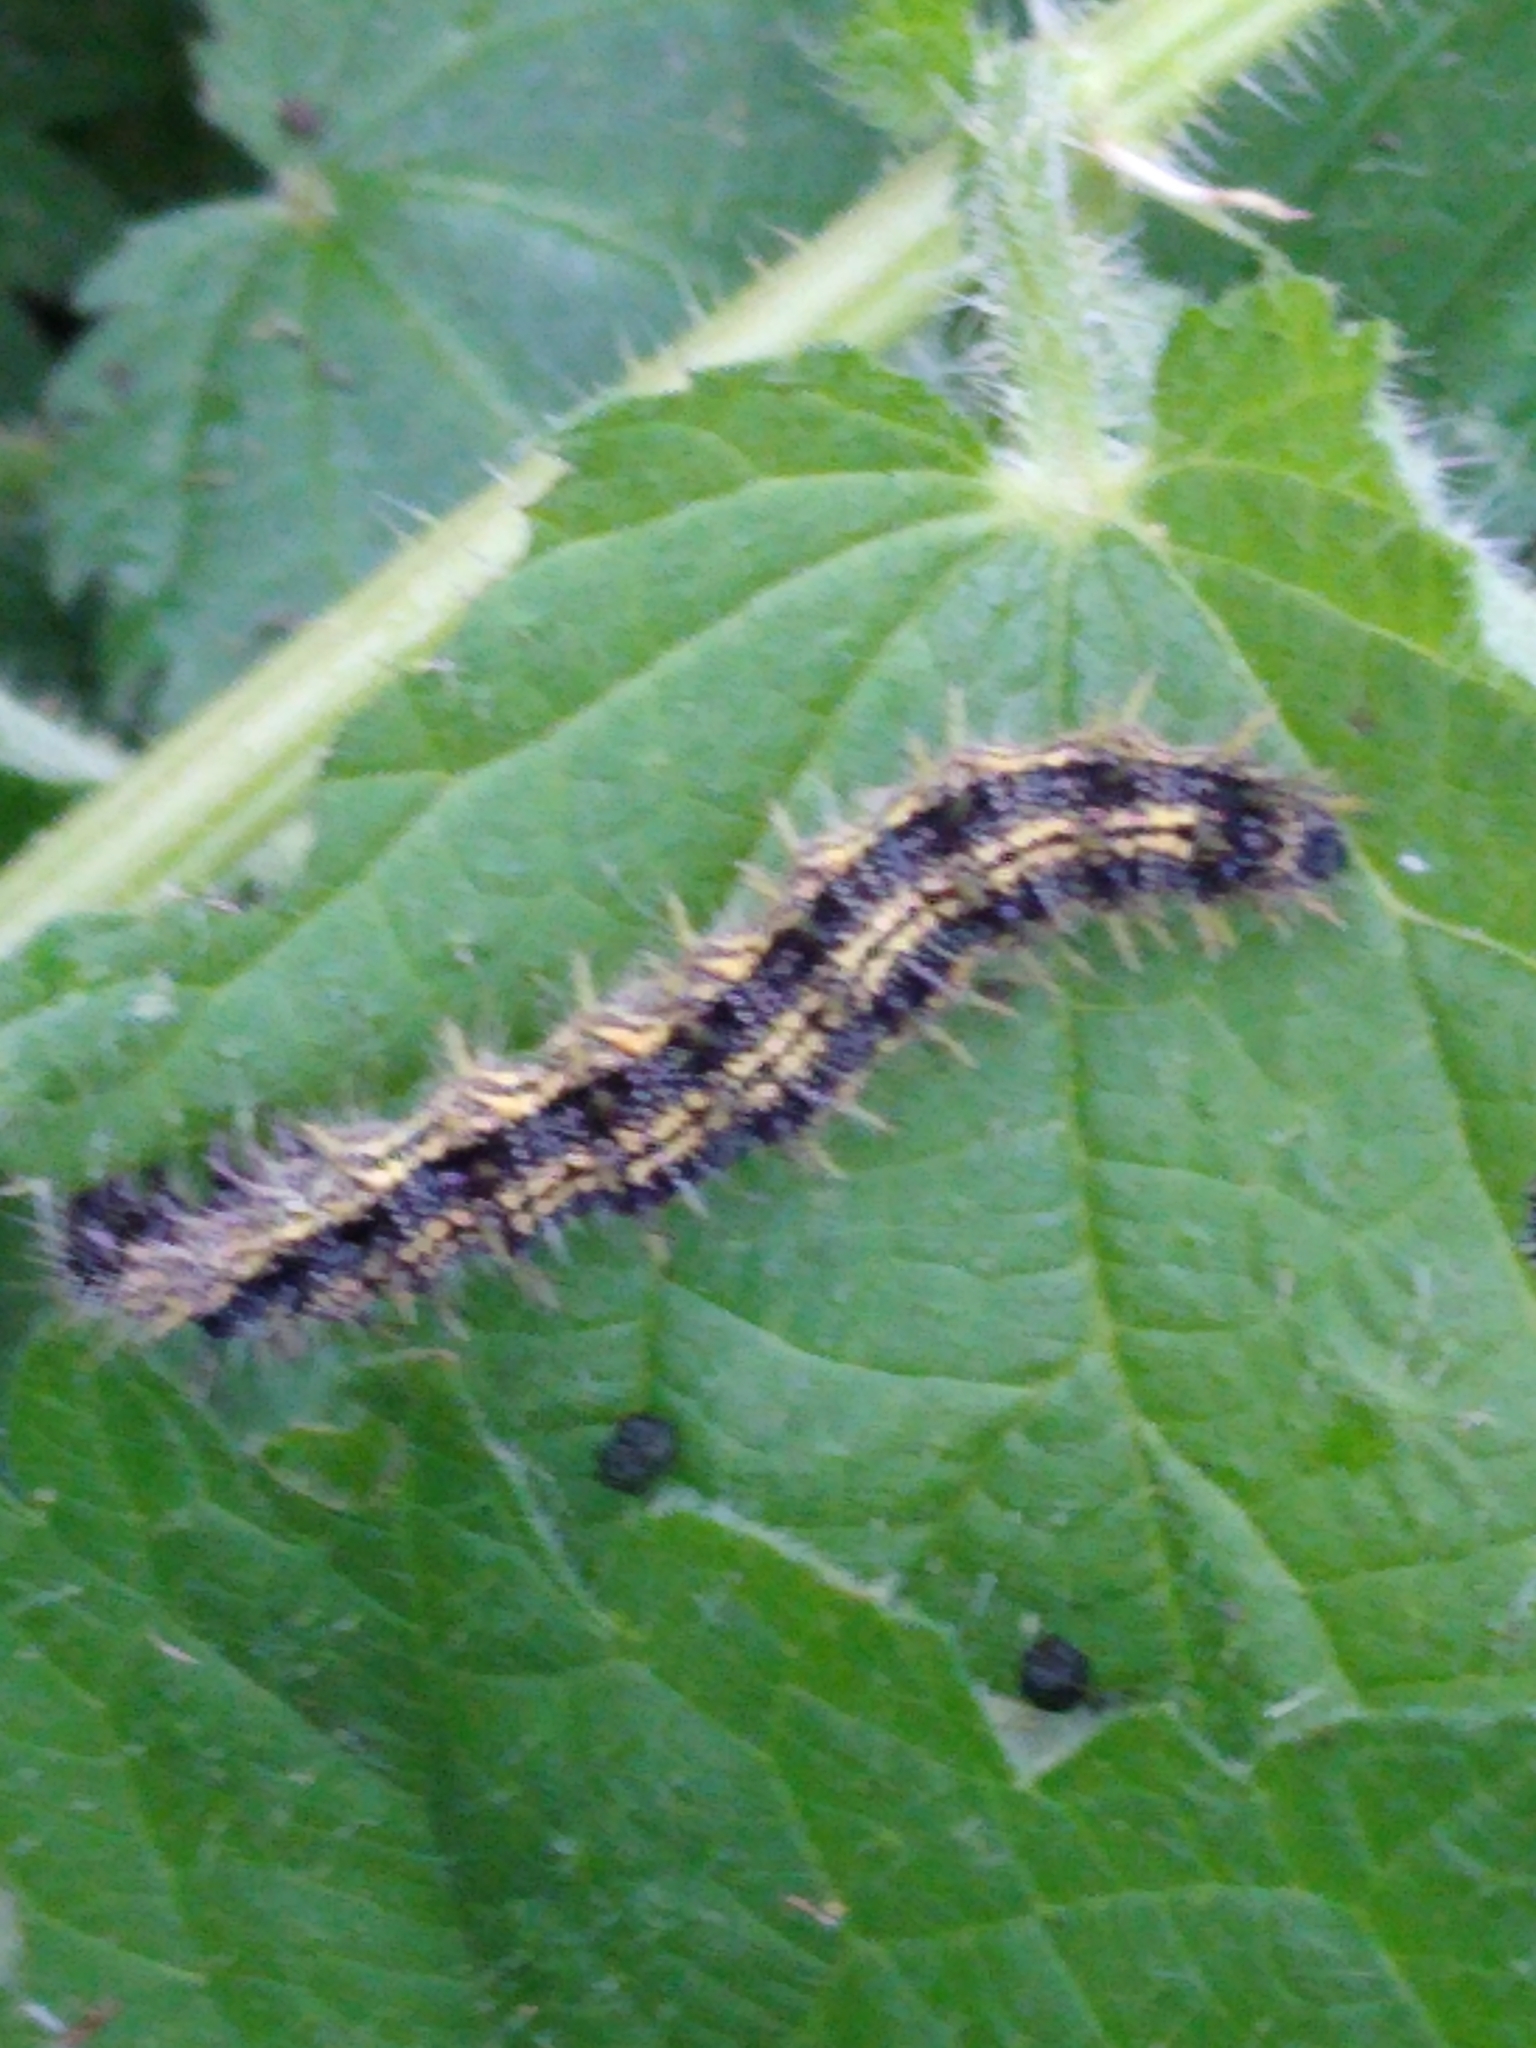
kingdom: Animalia
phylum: Arthropoda
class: Insecta
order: Lepidoptera
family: Nymphalidae
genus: Aglais
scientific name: Aglais urticae
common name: Small tortoiseshell
